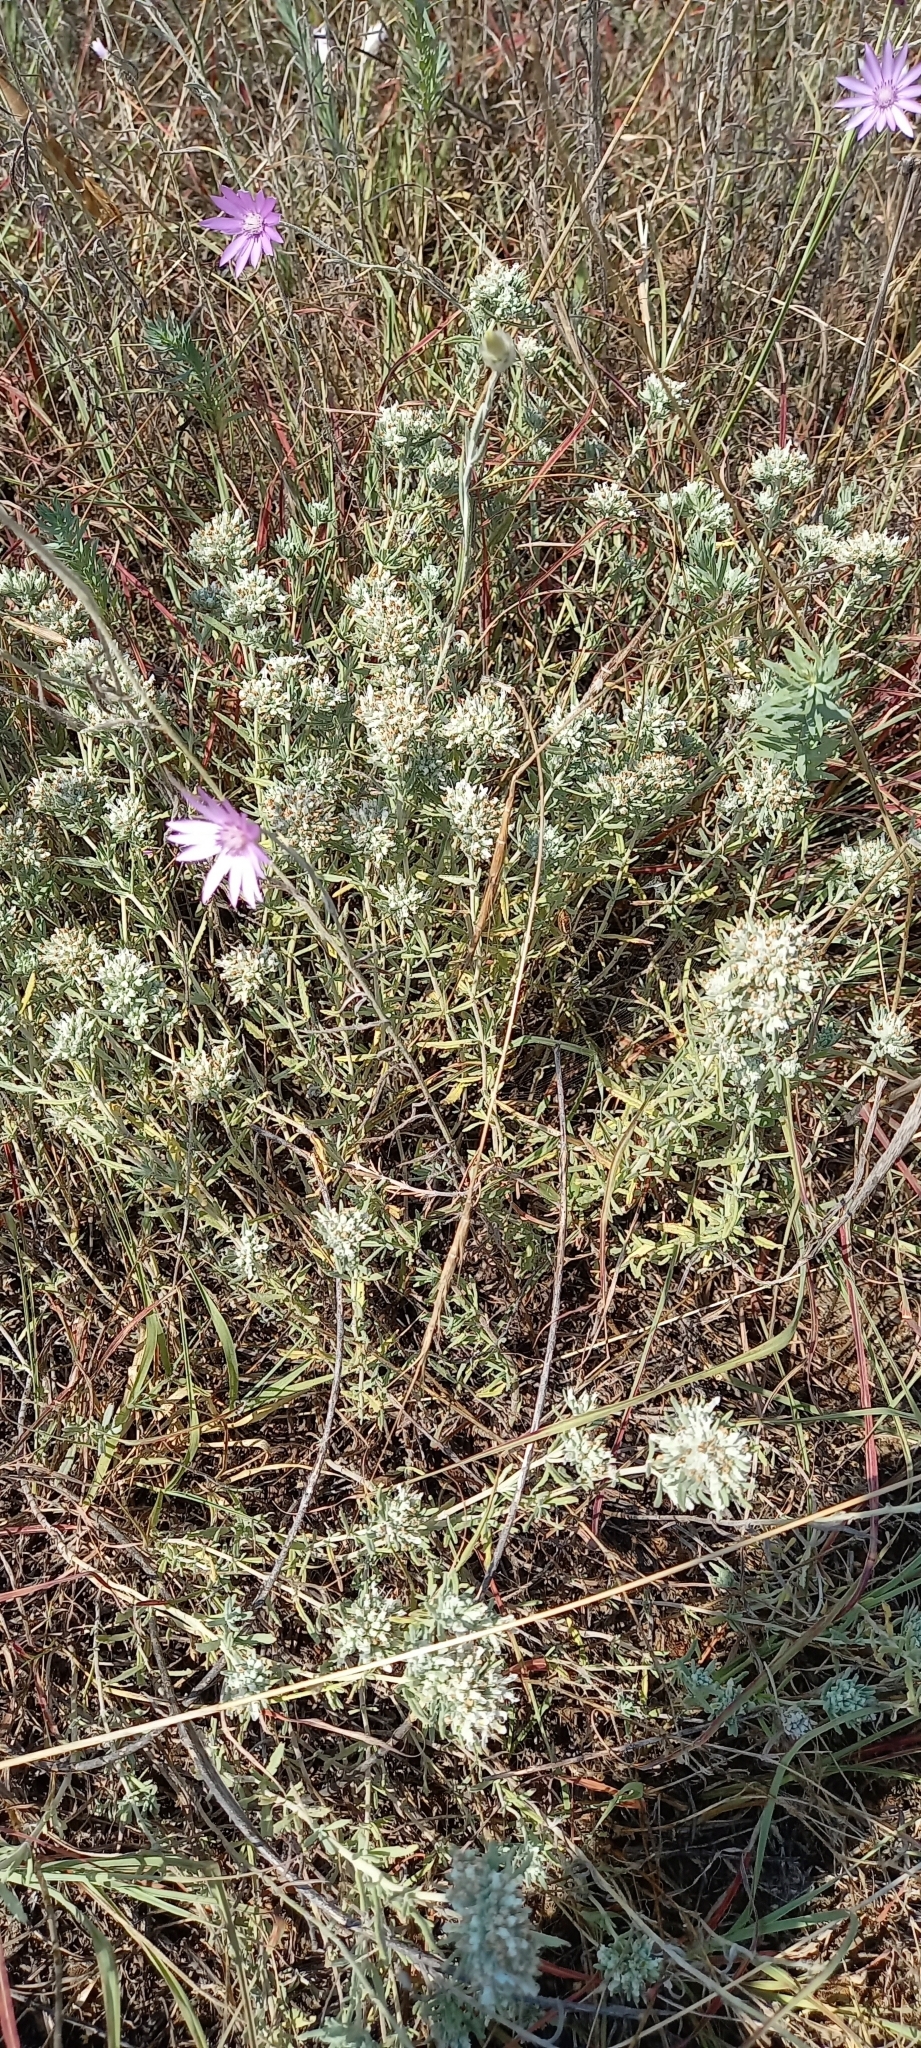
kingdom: Plantae
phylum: Tracheophyta
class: Magnoliopsida
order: Lamiales
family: Lamiaceae
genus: Teucrium
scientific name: Teucrium polium
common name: Poley
